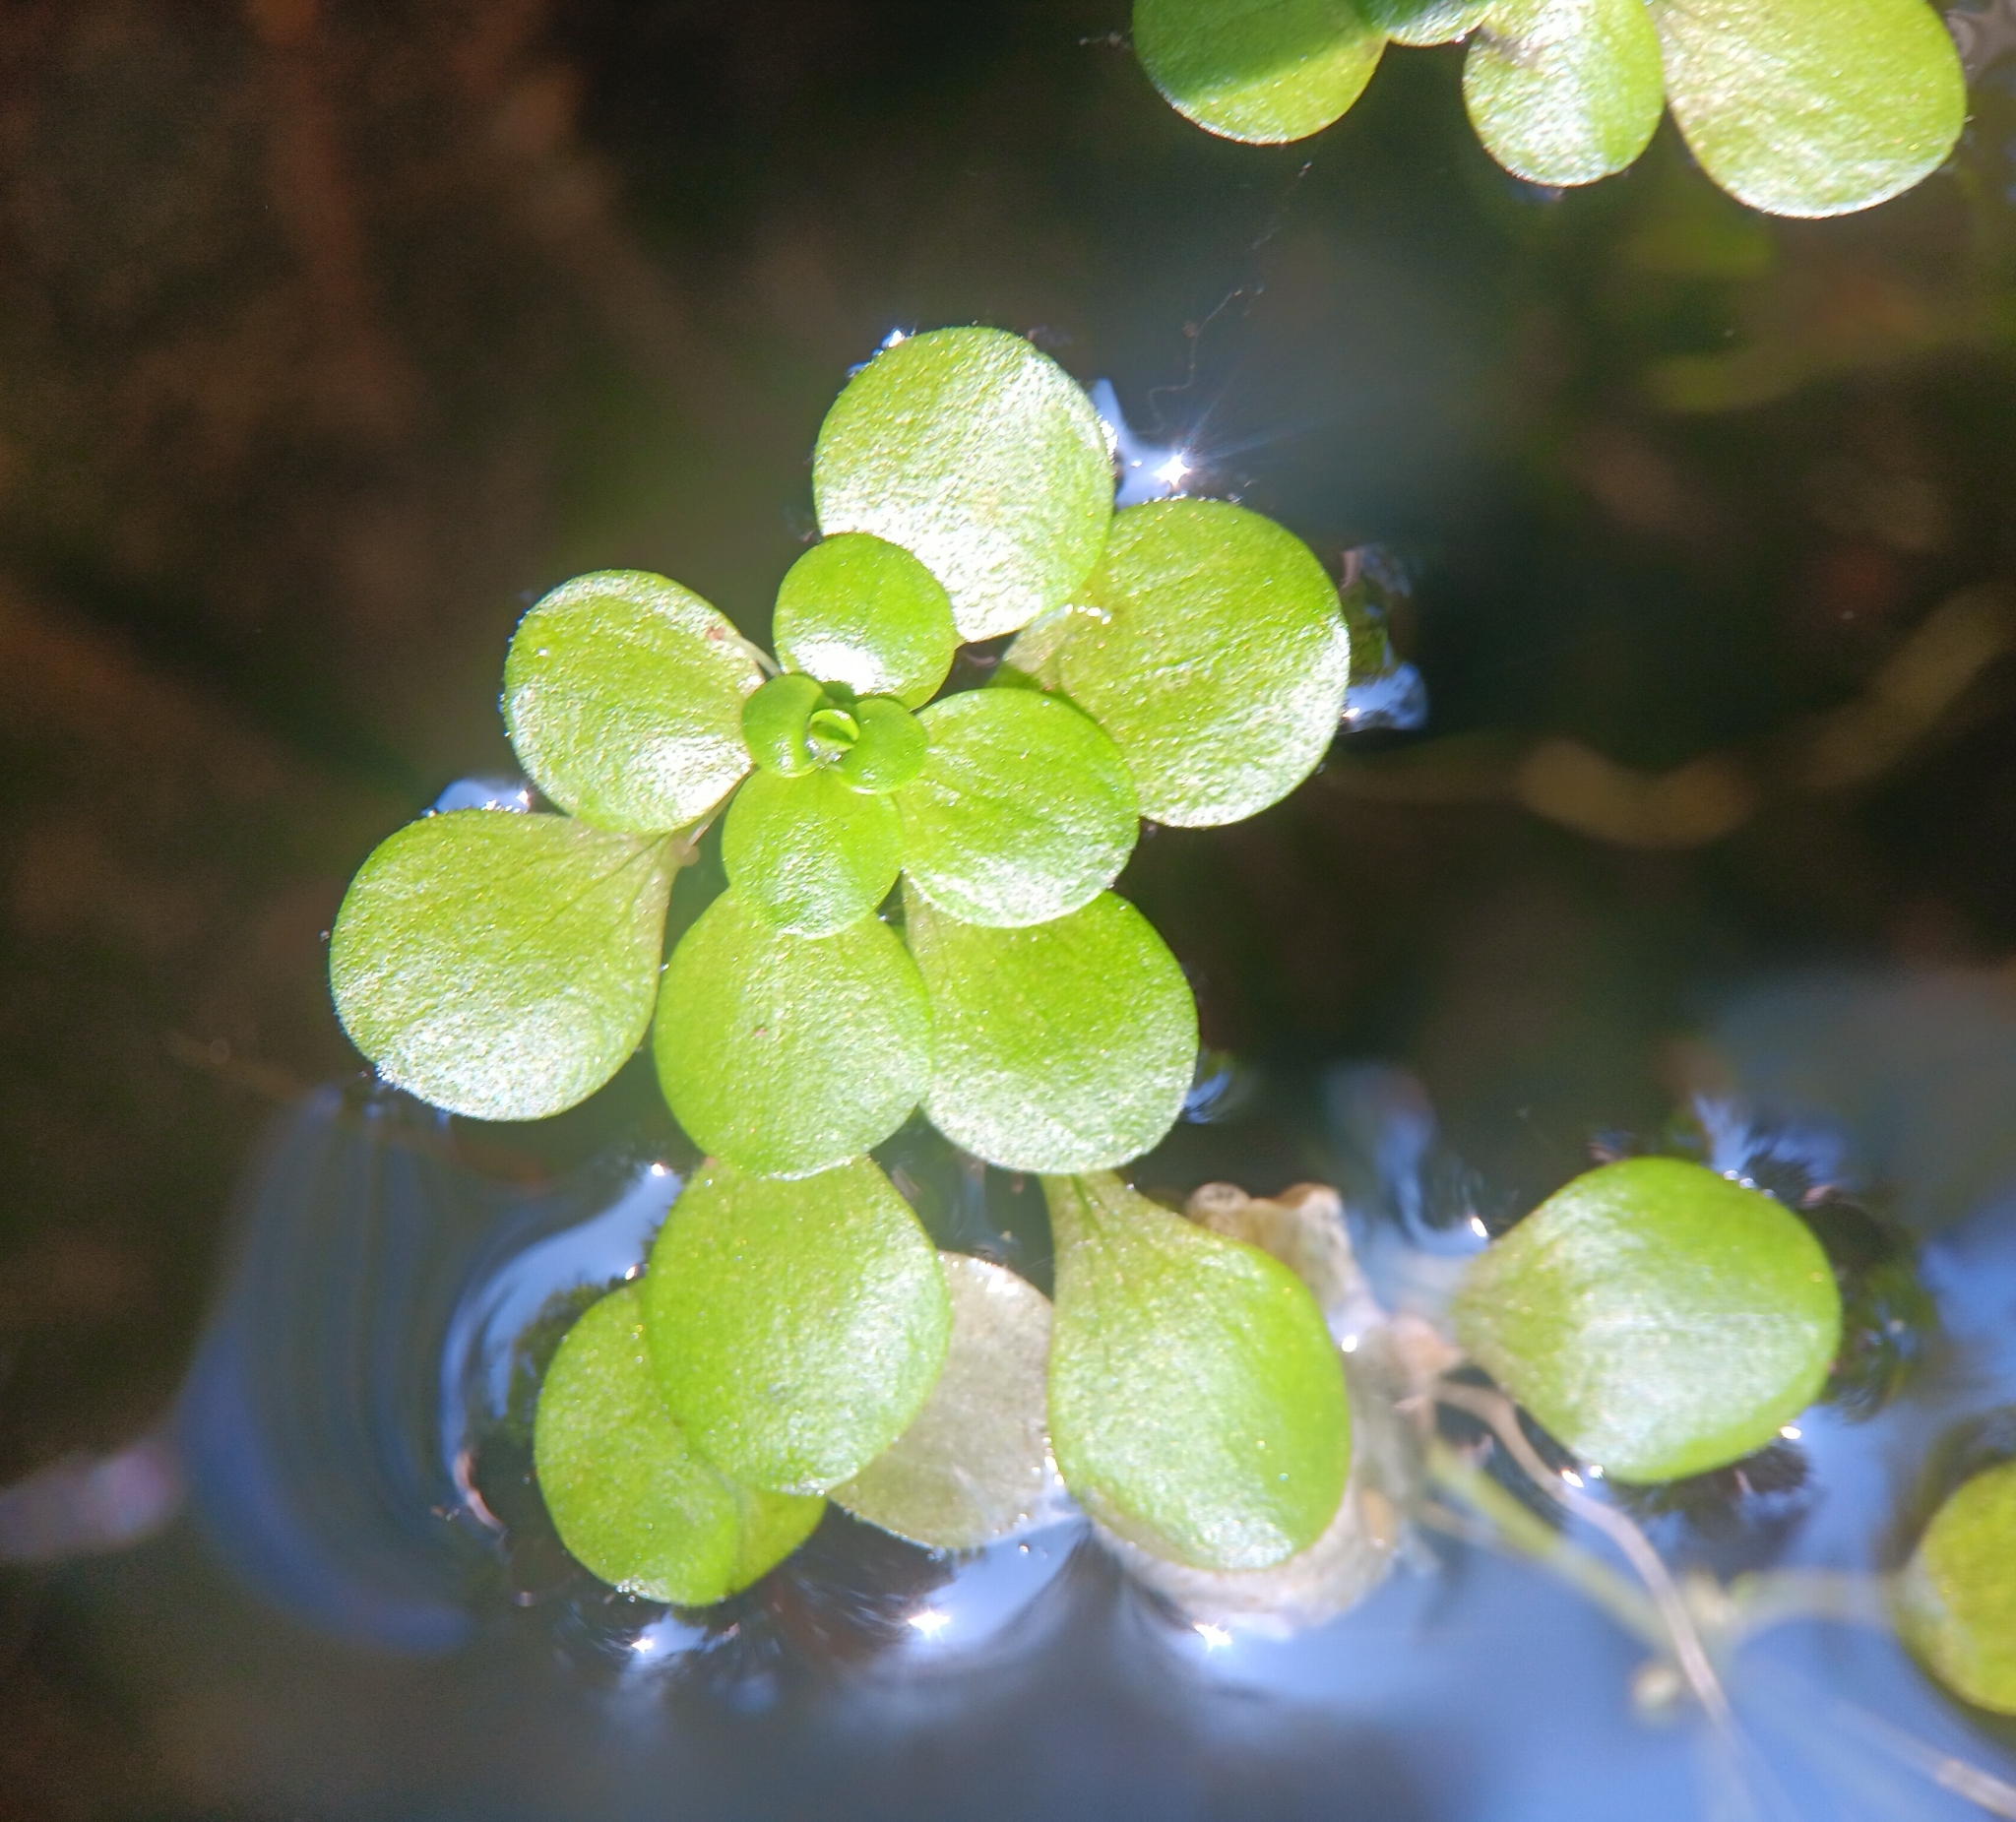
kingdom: Plantae
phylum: Tracheophyta
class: Magnoliopsida
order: Lamiales
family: Plantaginaceae
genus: Callitriche
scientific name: Callitriche stagnalis
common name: Common water-starwort
